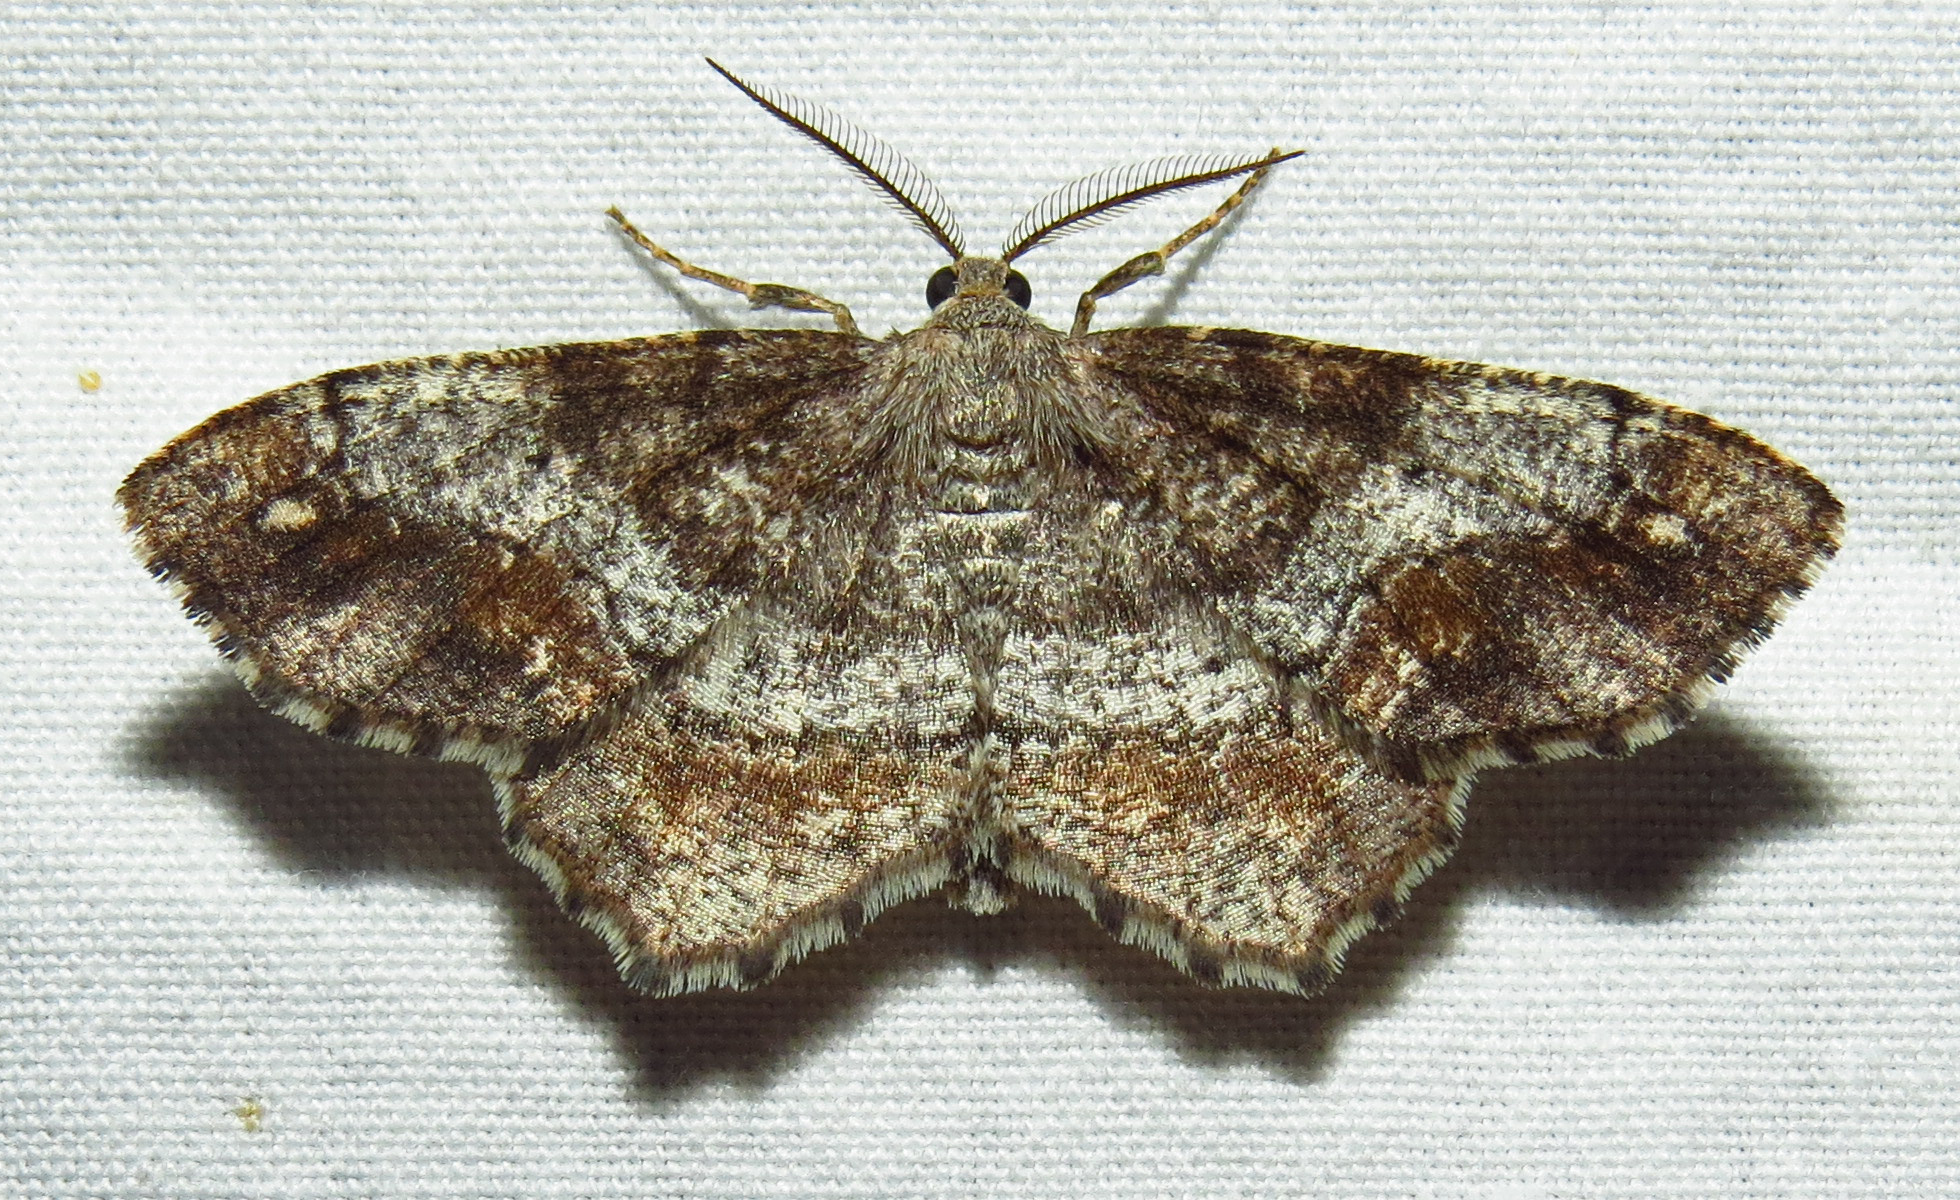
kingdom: Animalia
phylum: Arthropoda
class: Insecta
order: Lepidoptera
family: Geometridae
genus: Hypagyrtis
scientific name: Hypagyrtis unipunctata
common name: One-spotted variant
